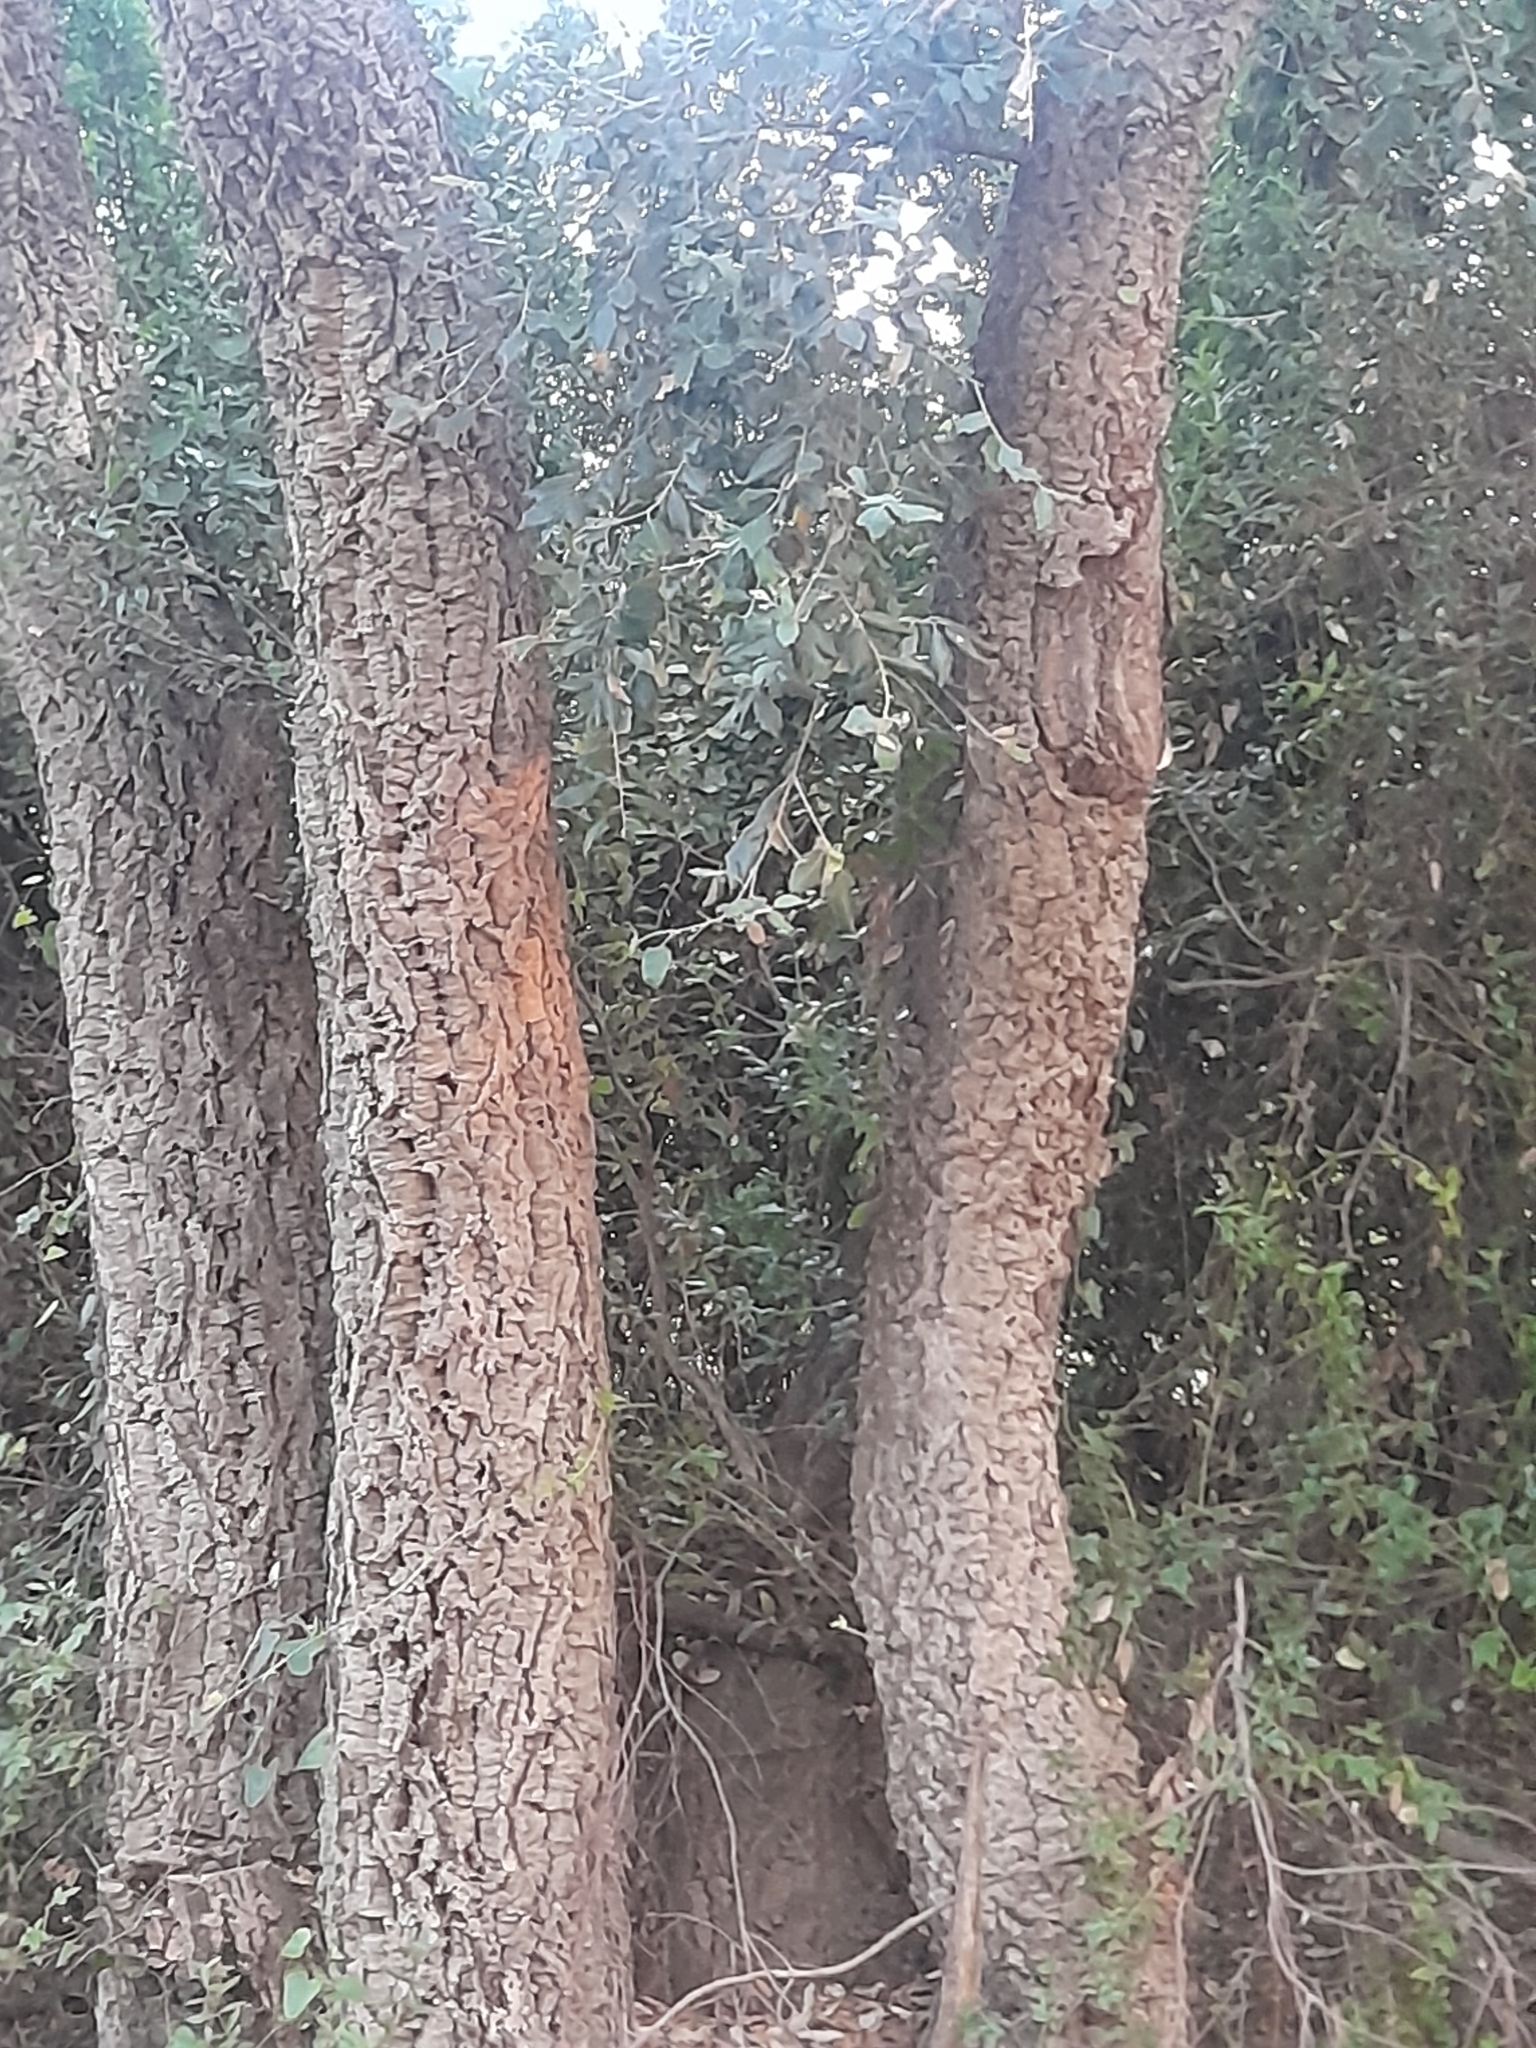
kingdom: Plantae
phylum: Tracheophyta
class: Magnoliopsida
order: Fagales
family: Fagaceae
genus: Quercus
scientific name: Quercus suber
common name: Cork oak
